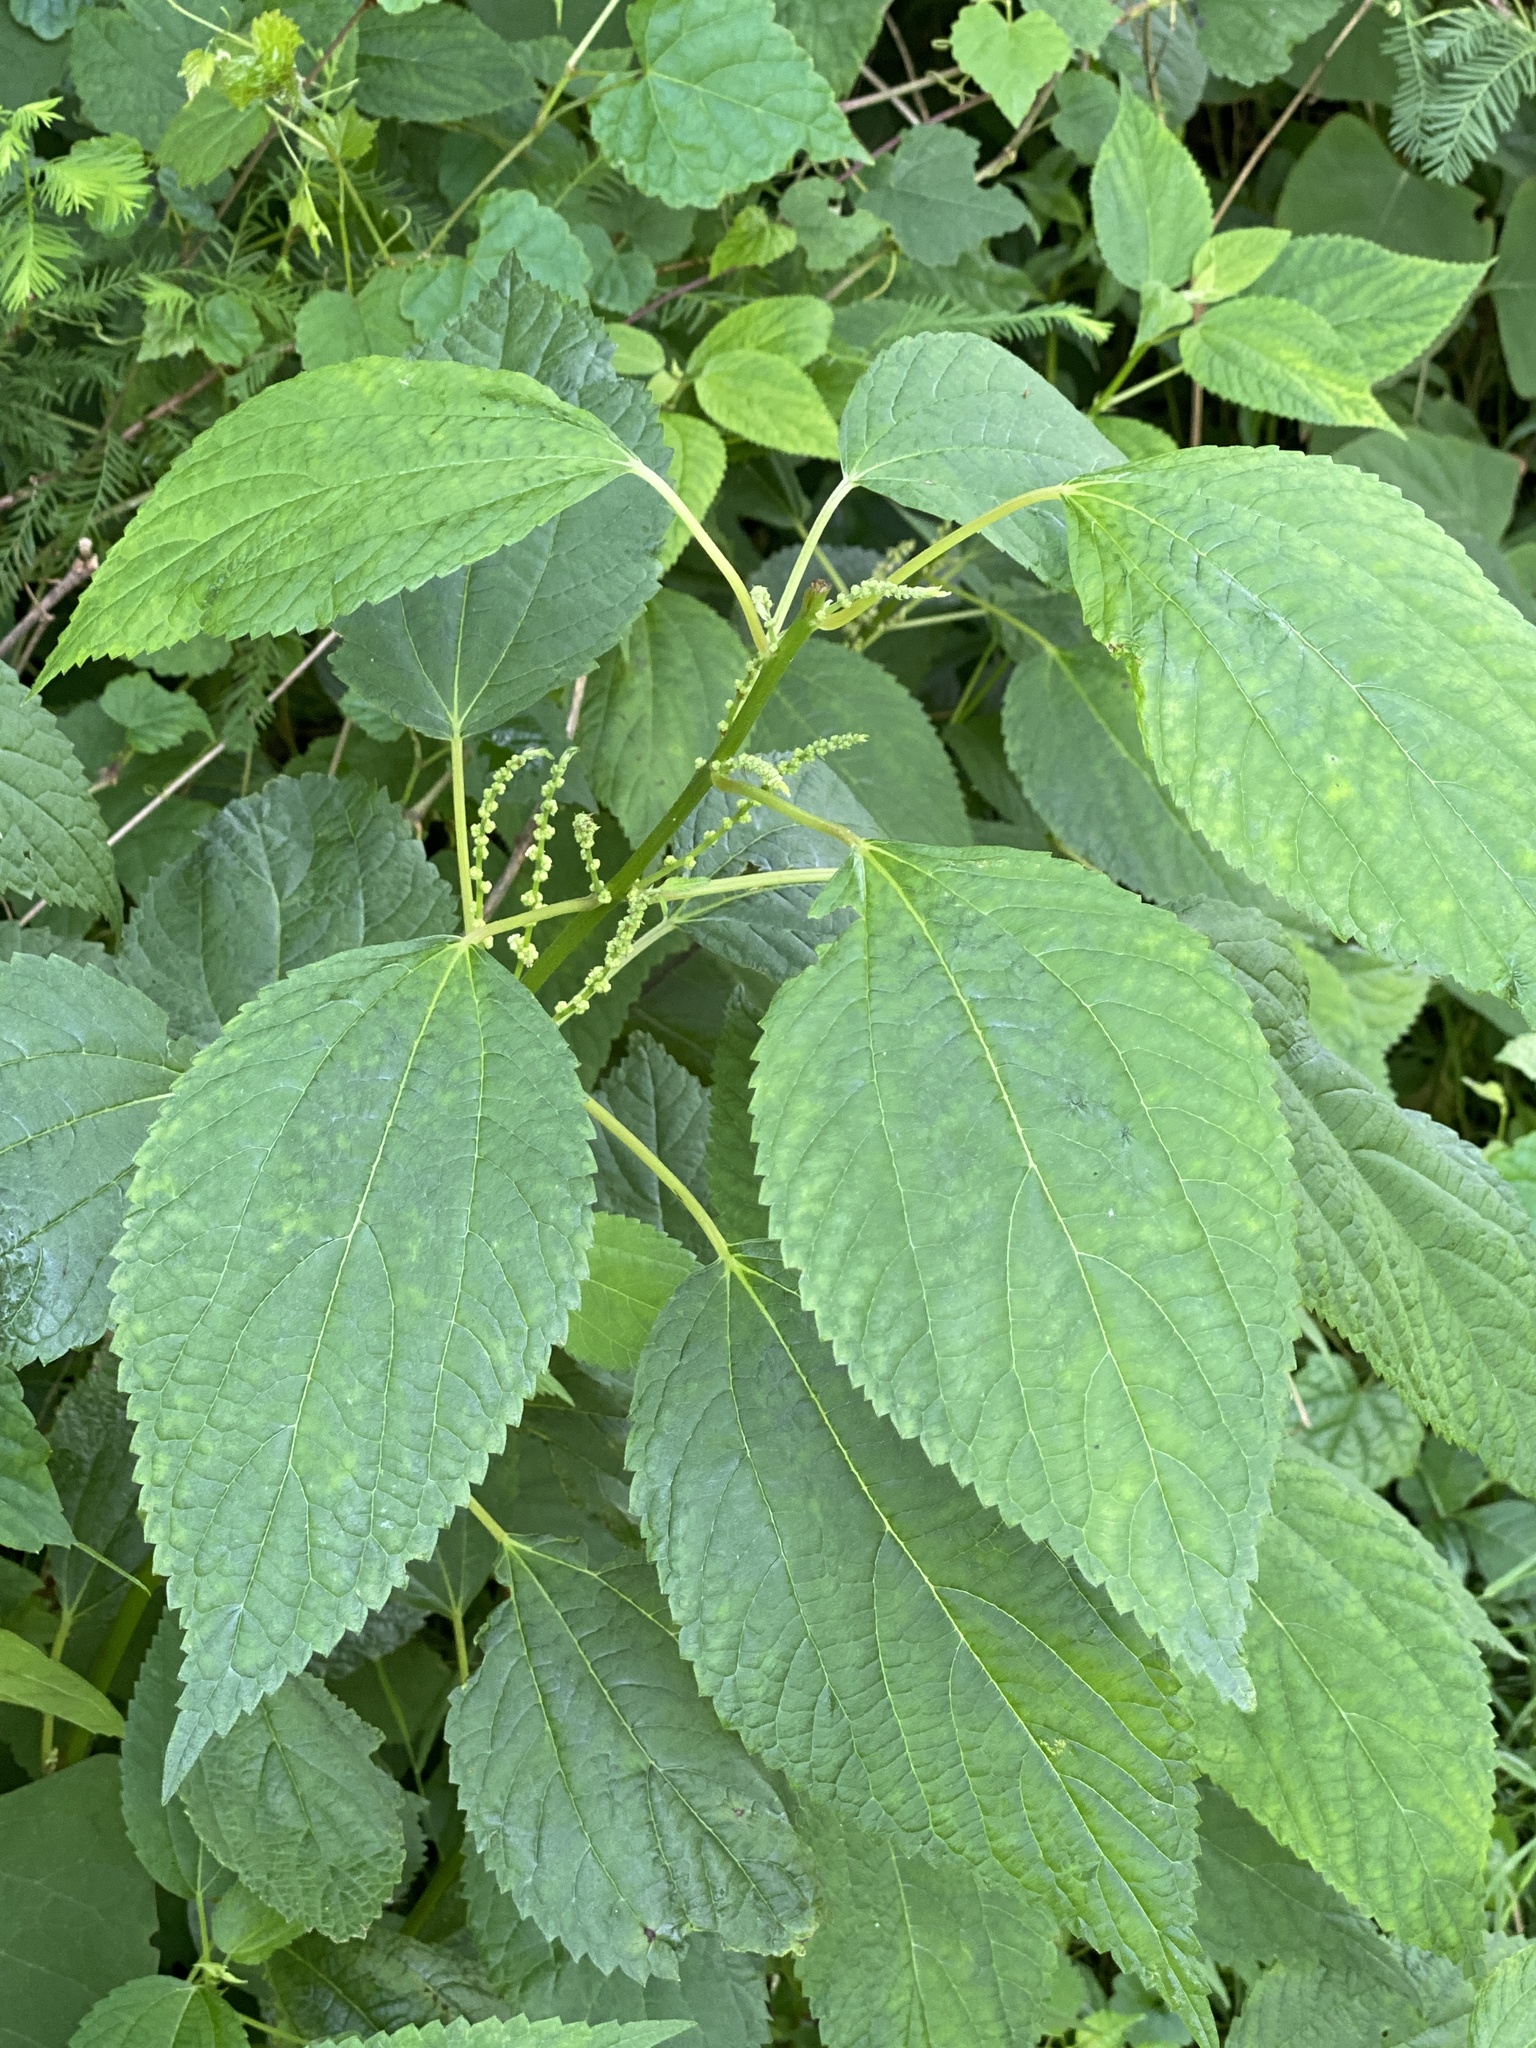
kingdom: Plantae
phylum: Tracheophyta
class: Magnoliopsida
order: Rosales
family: Urticaceae
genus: Boehmeria
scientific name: Boehmeria cylindrica
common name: Bog-hemp
